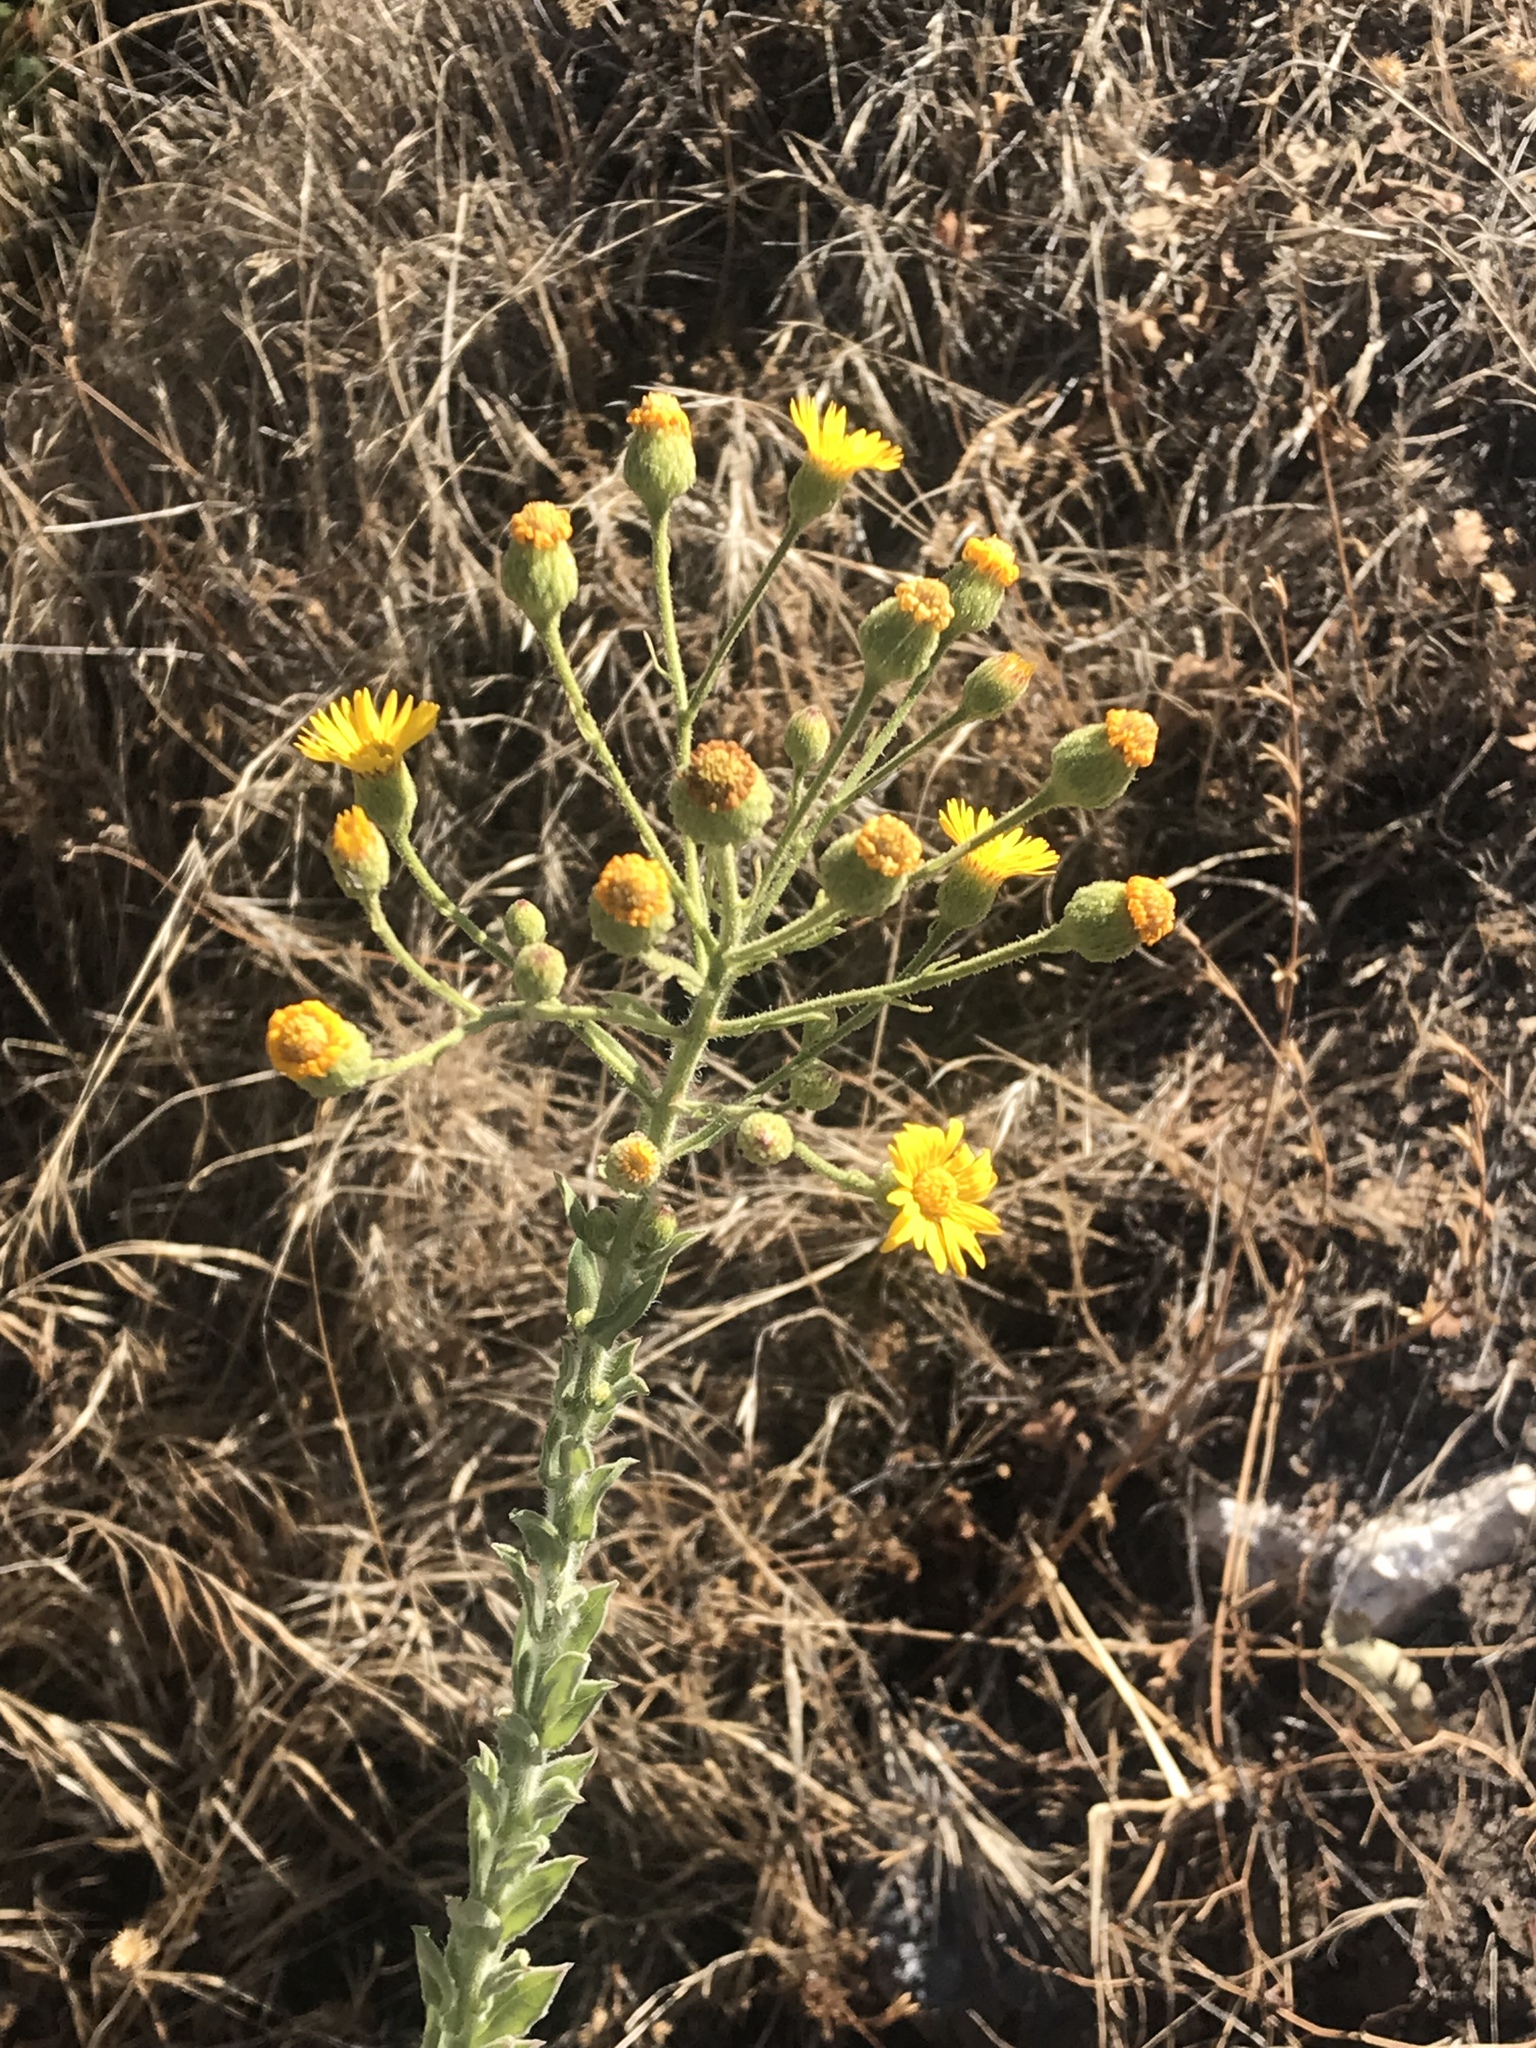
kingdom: Plantae
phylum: Tracheophyta
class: Magnoliopsida
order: Asterales
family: Asteraceae
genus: Heterotheca
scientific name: Heterotheca grandiflora
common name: Telegraphweed
